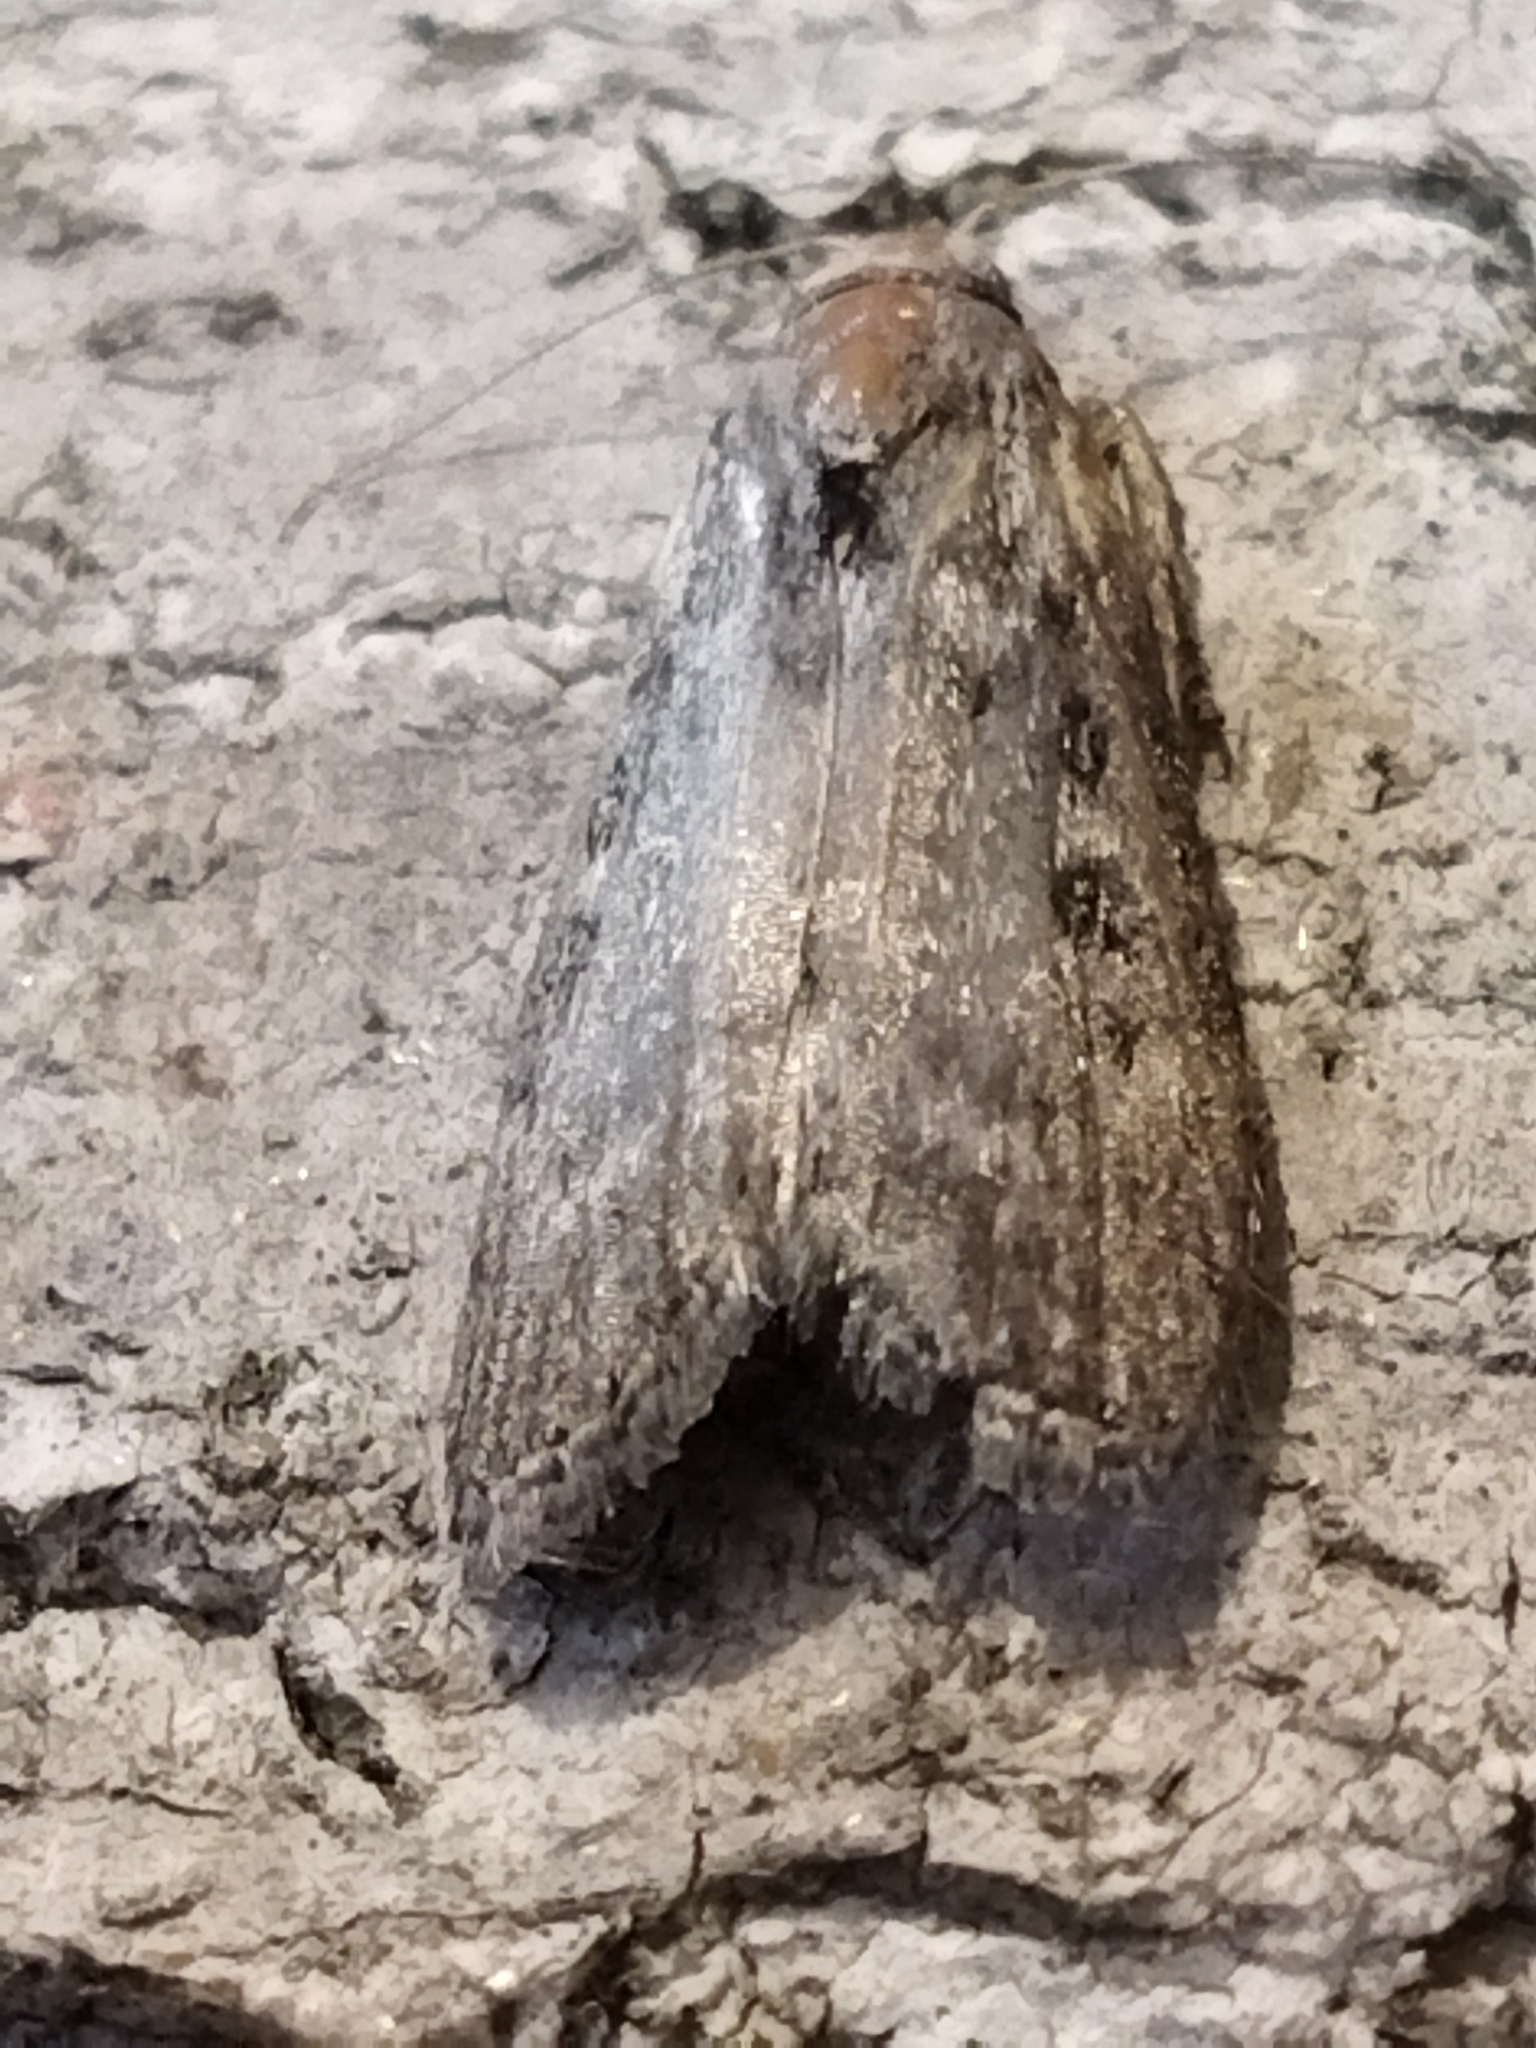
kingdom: Animalia
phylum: Arthropoda
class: Insecta
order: Lepidoptera
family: Pyralidae
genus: Lamoria
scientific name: Lamoria anella
